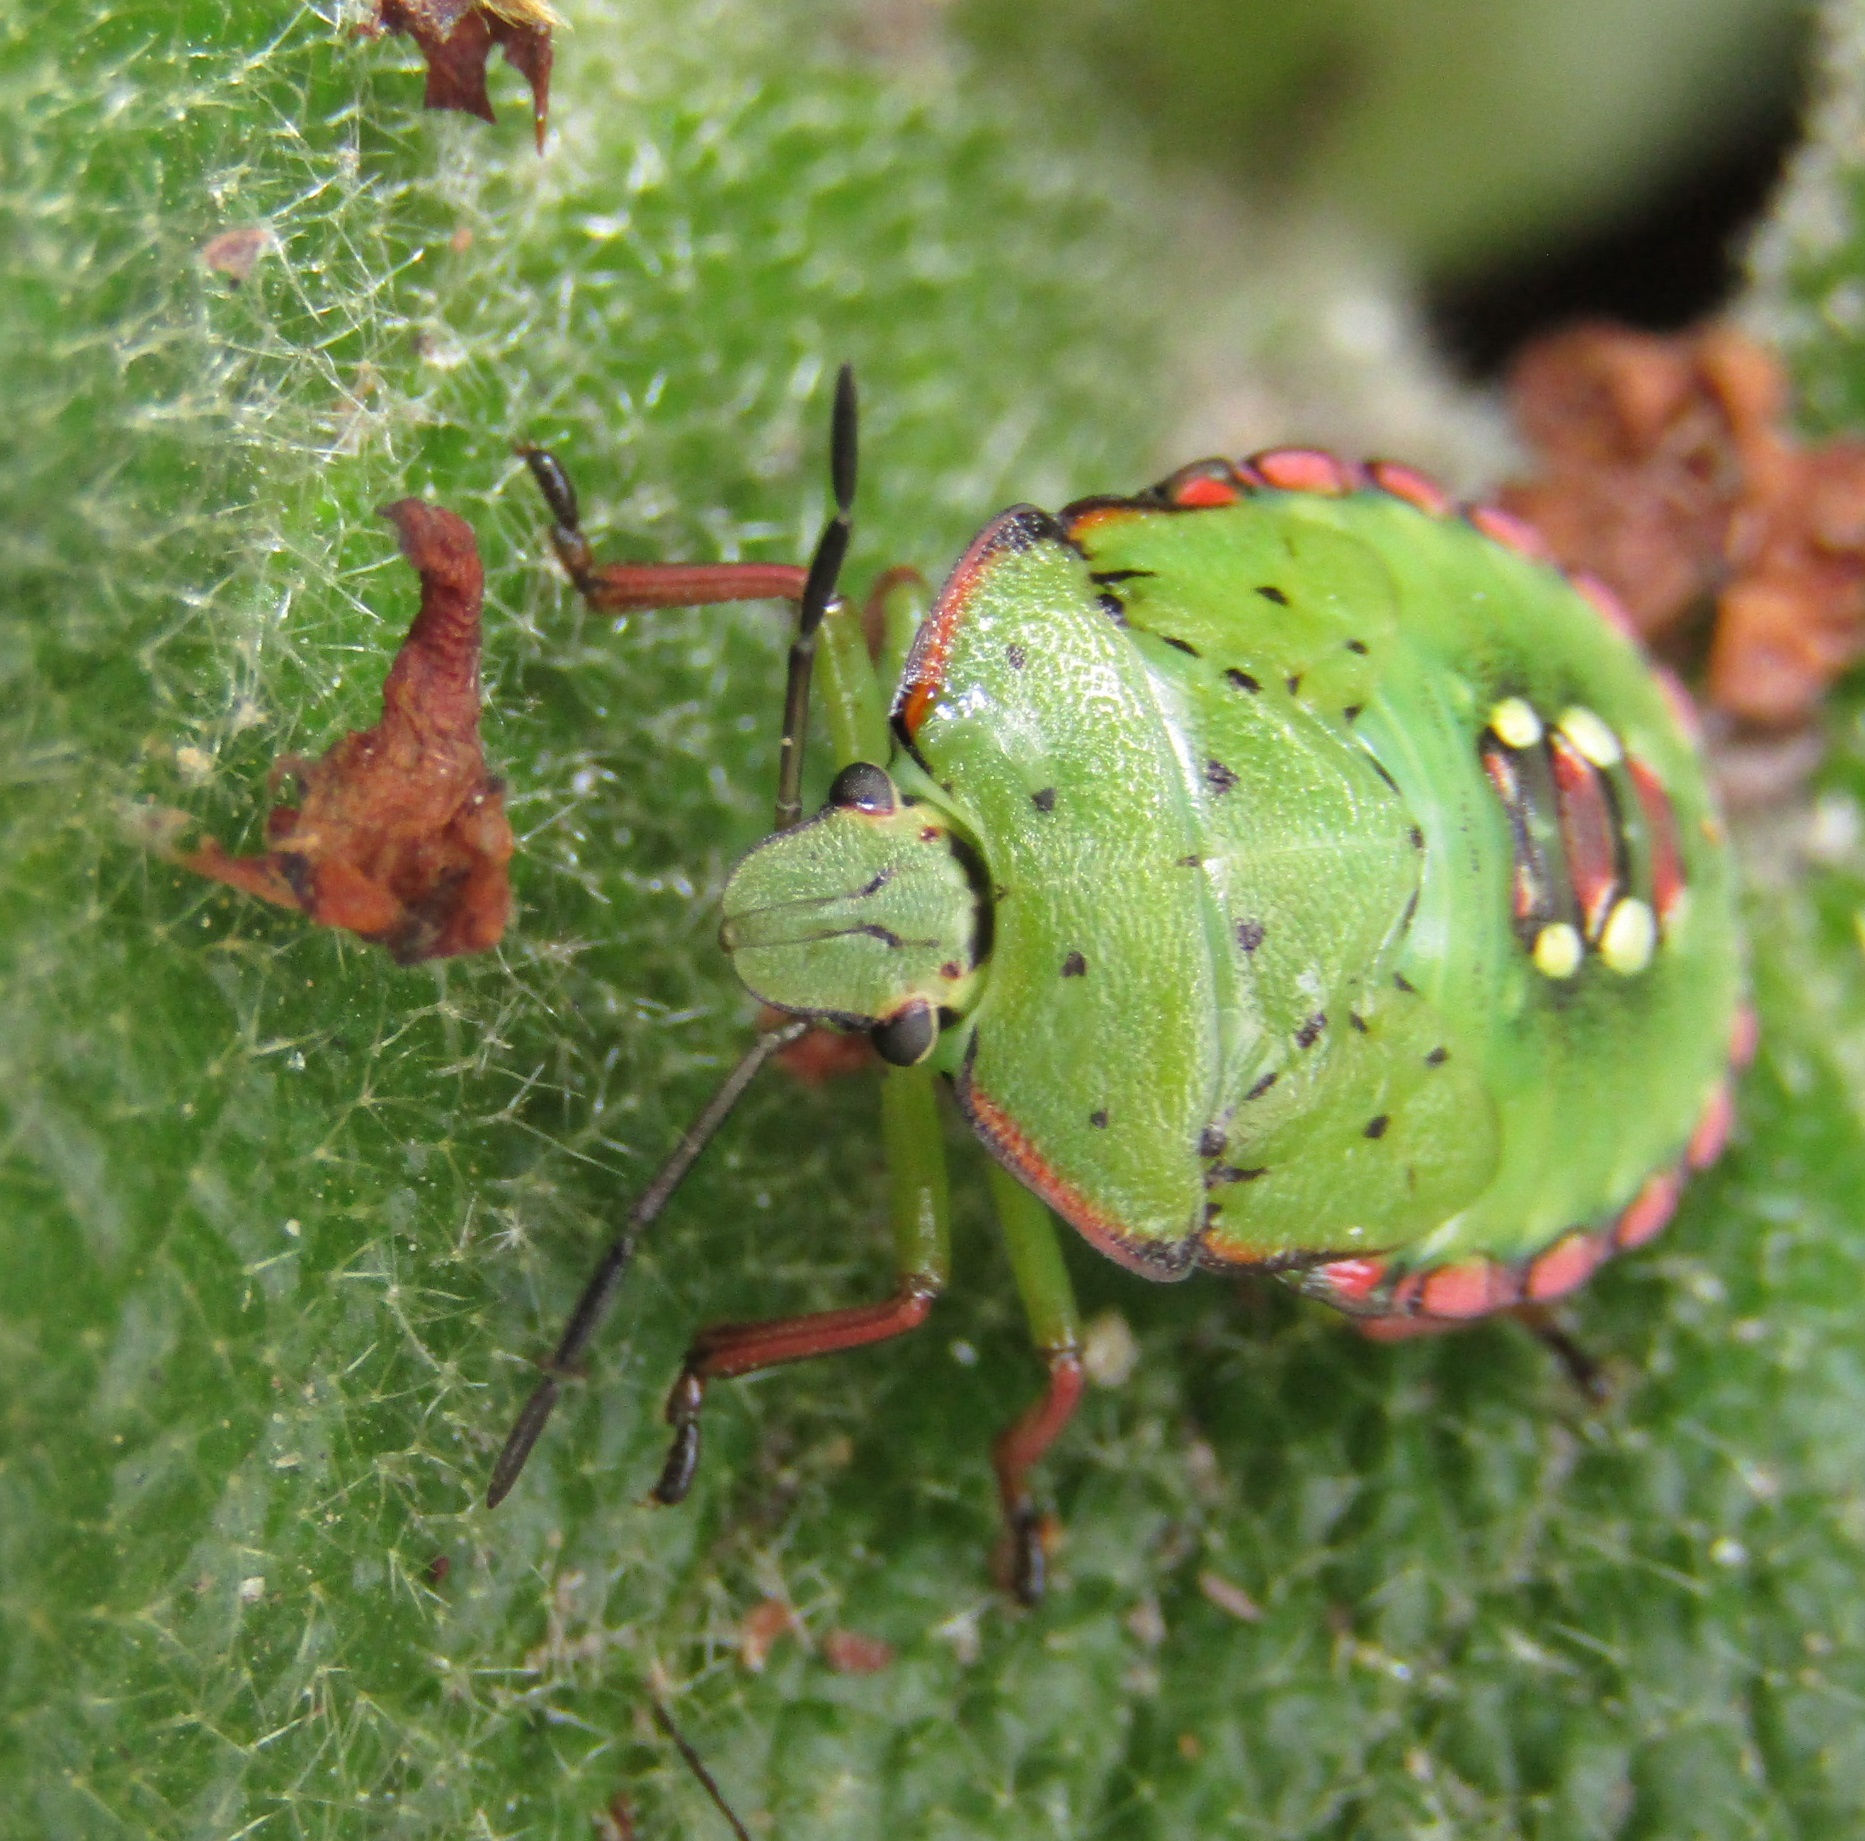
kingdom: Animalia
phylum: Arthropoda
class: Insecta
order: Hemiptera
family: Pentatomidae
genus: Nezara
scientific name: Nezara viridula
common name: Southern green stink bug
